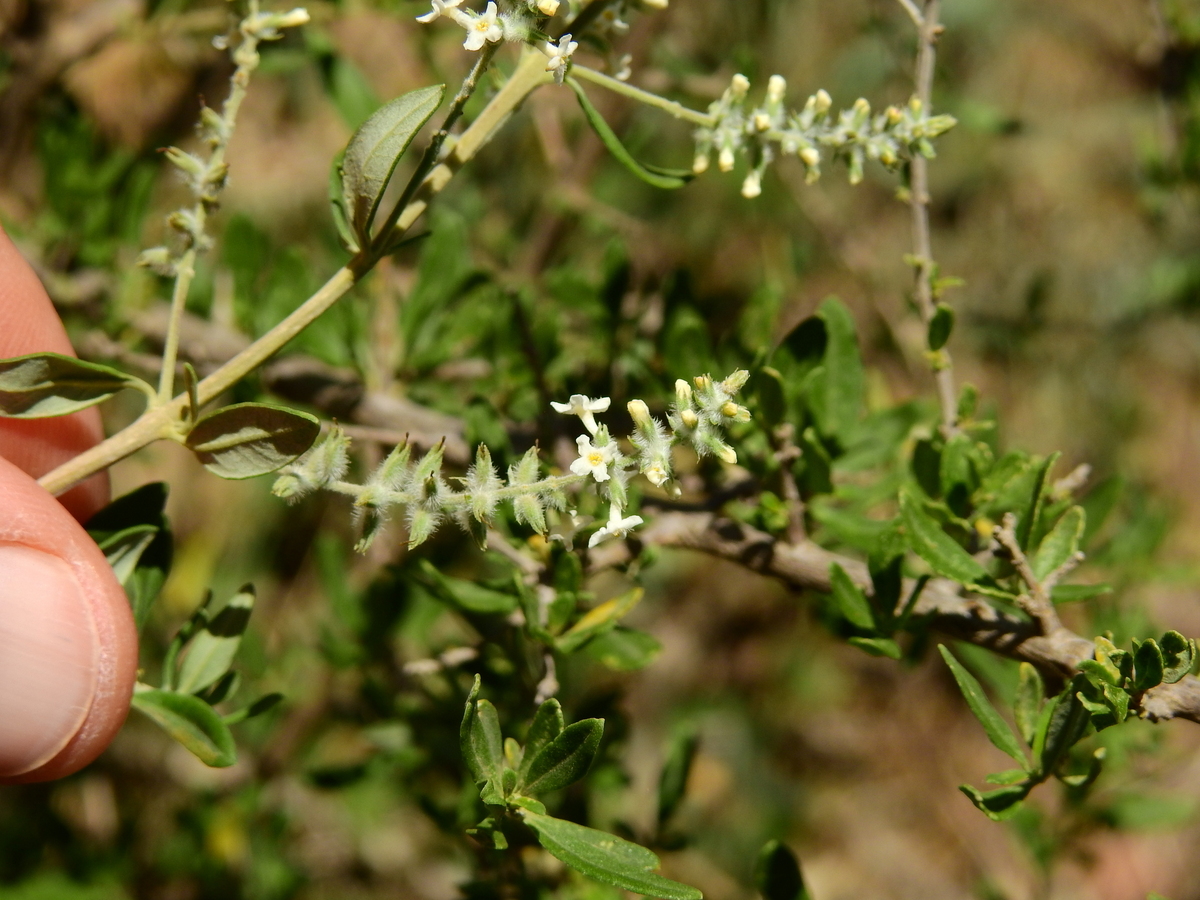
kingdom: Plantae
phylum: Tracheophyta
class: Magnoliopsida
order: Lamiales
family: Verbenaceae
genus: Aloysia
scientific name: Aloysia gratissima
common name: Common bee-brush
